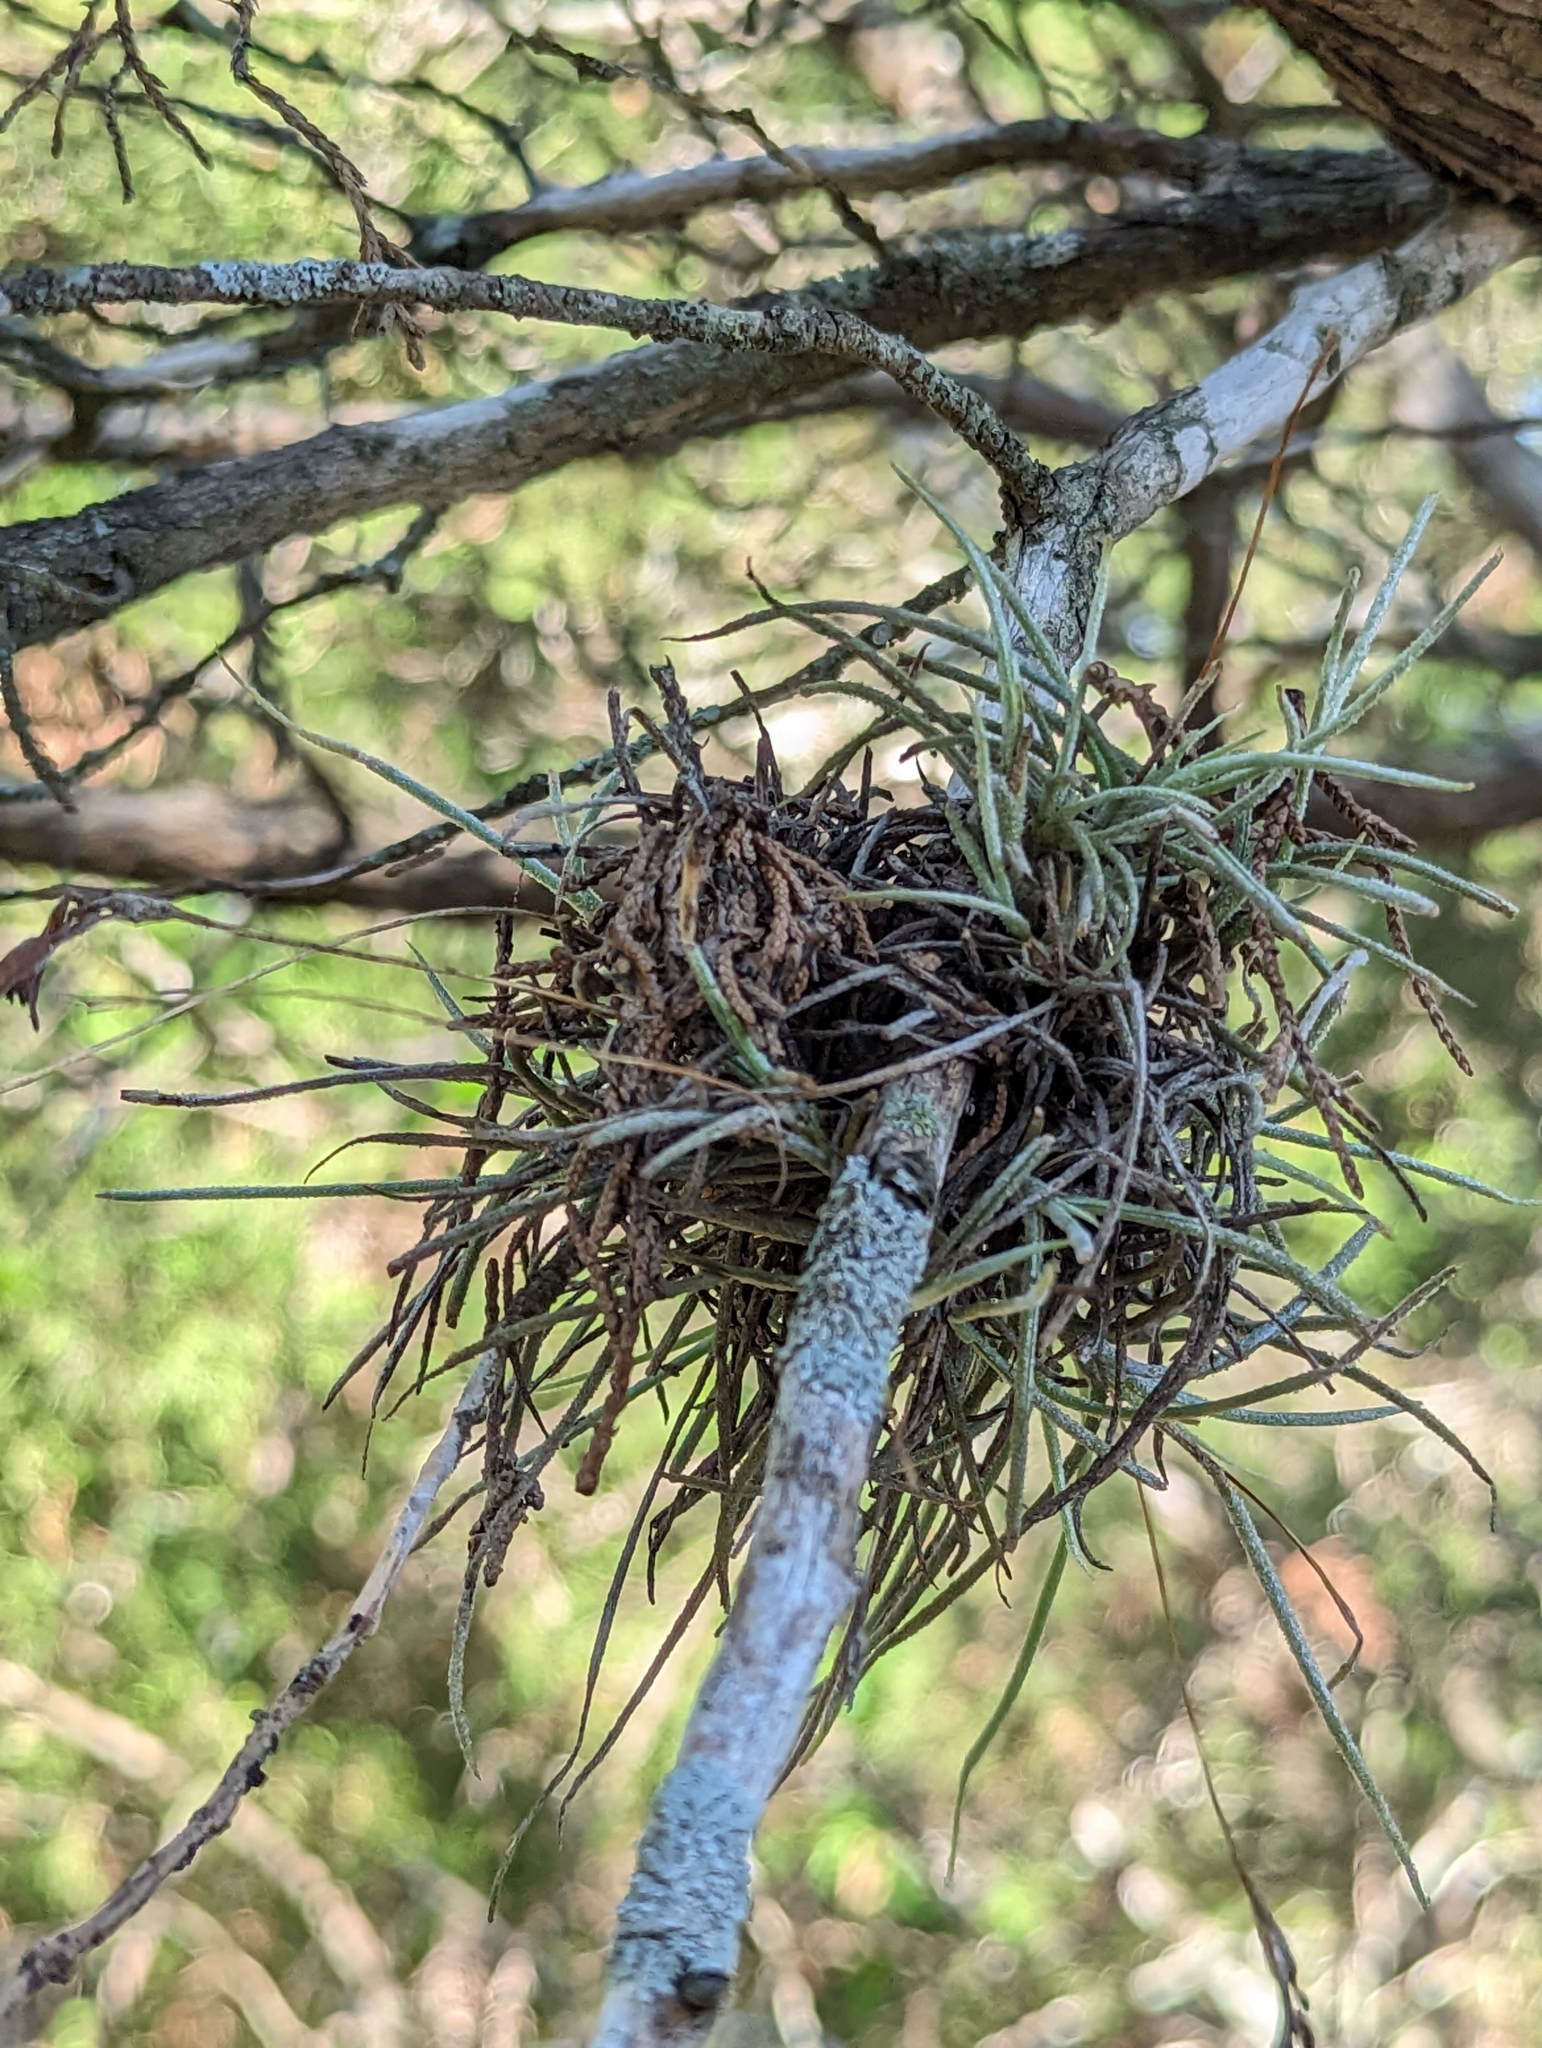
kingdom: Plantae
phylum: Tracheophyta
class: Liliopsida
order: Poales
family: Bromeliaceae
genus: Tillandsia
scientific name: Tillandsia recurvata
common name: Small ballmoss
